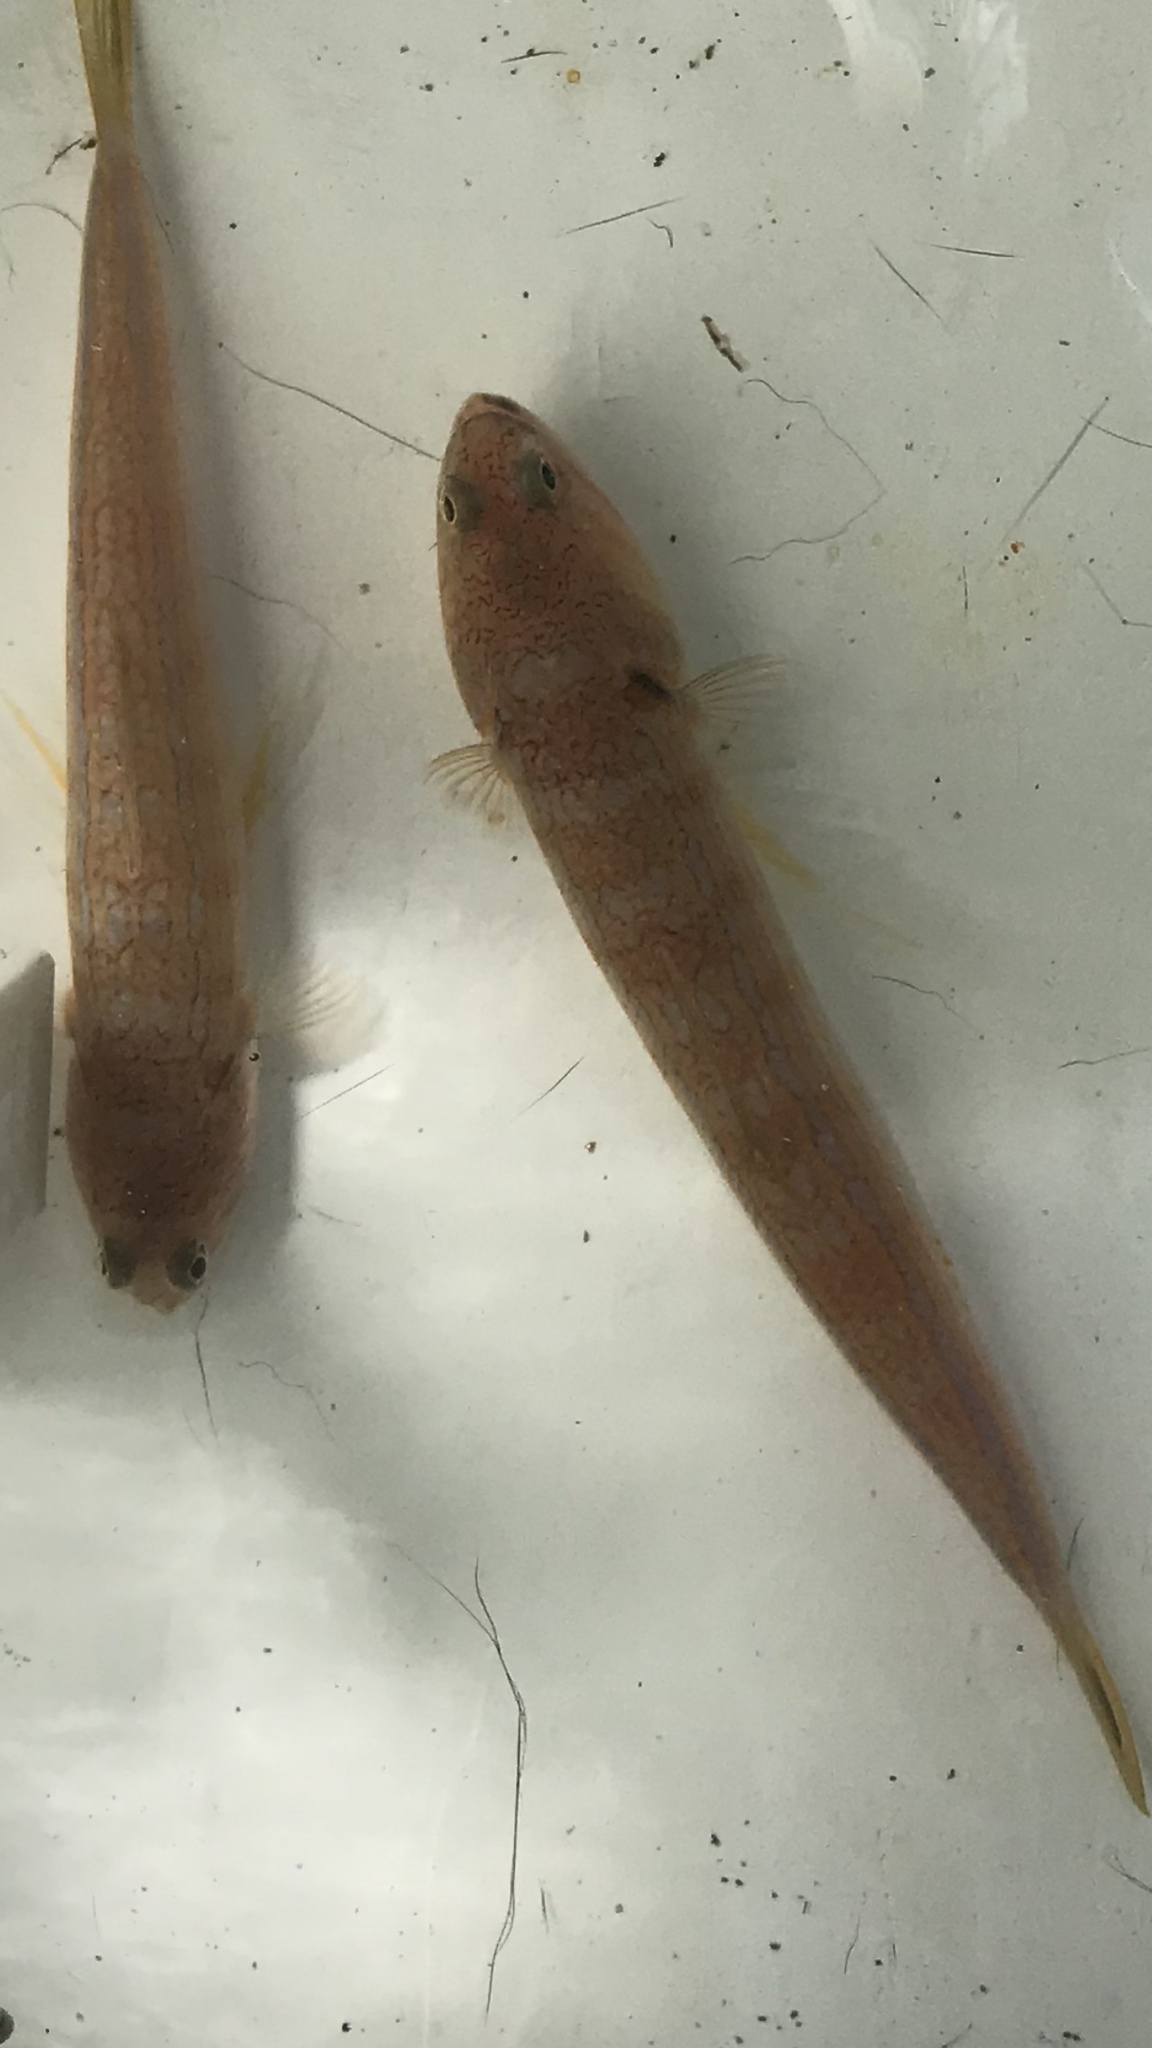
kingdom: Animalia
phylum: Chordata
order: Aulopiformes
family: Synodontidae
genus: Synodus
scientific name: Synodus myops
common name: Snakefish
